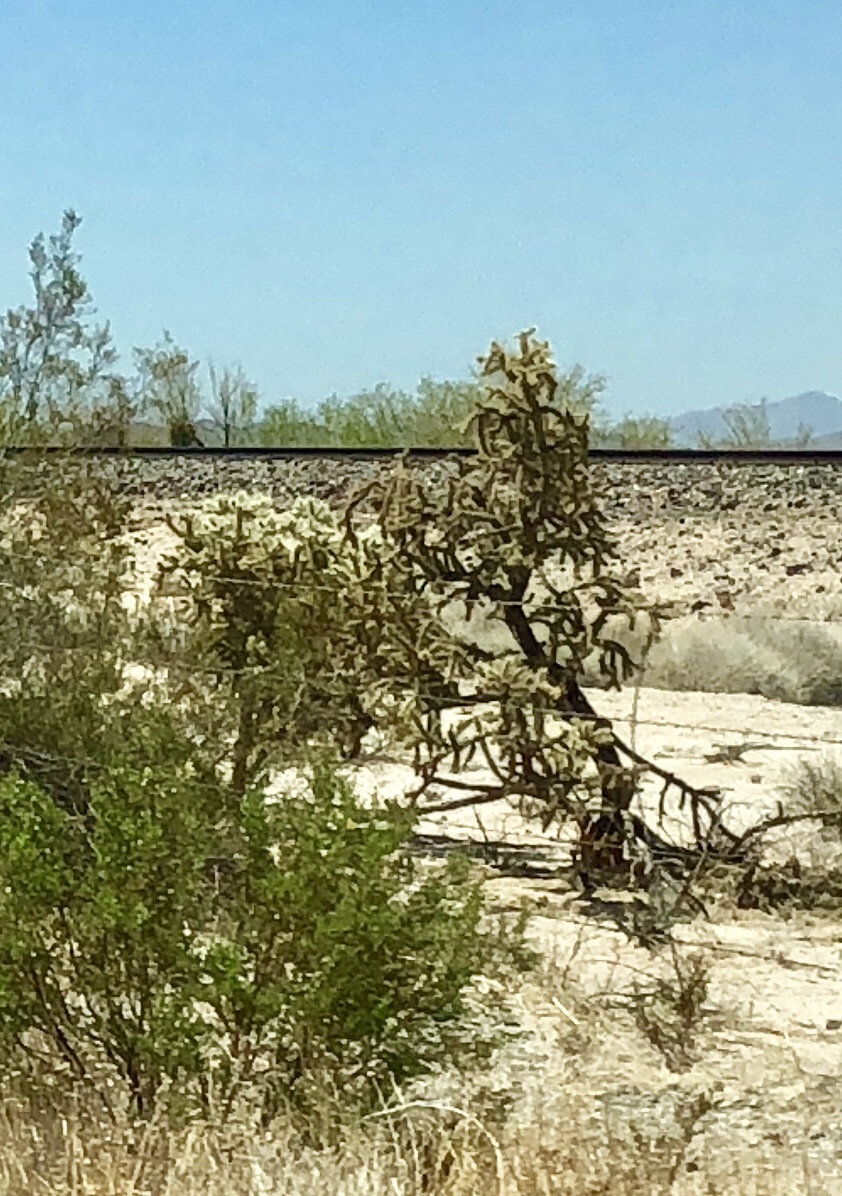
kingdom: Plantae
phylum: Tracheophyta
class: Magnoliopsida
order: Caryophyllales
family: Cactaceae
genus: Cylindropuntia
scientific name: Cylindropuntia imbricata
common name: Candelabrum cactus
